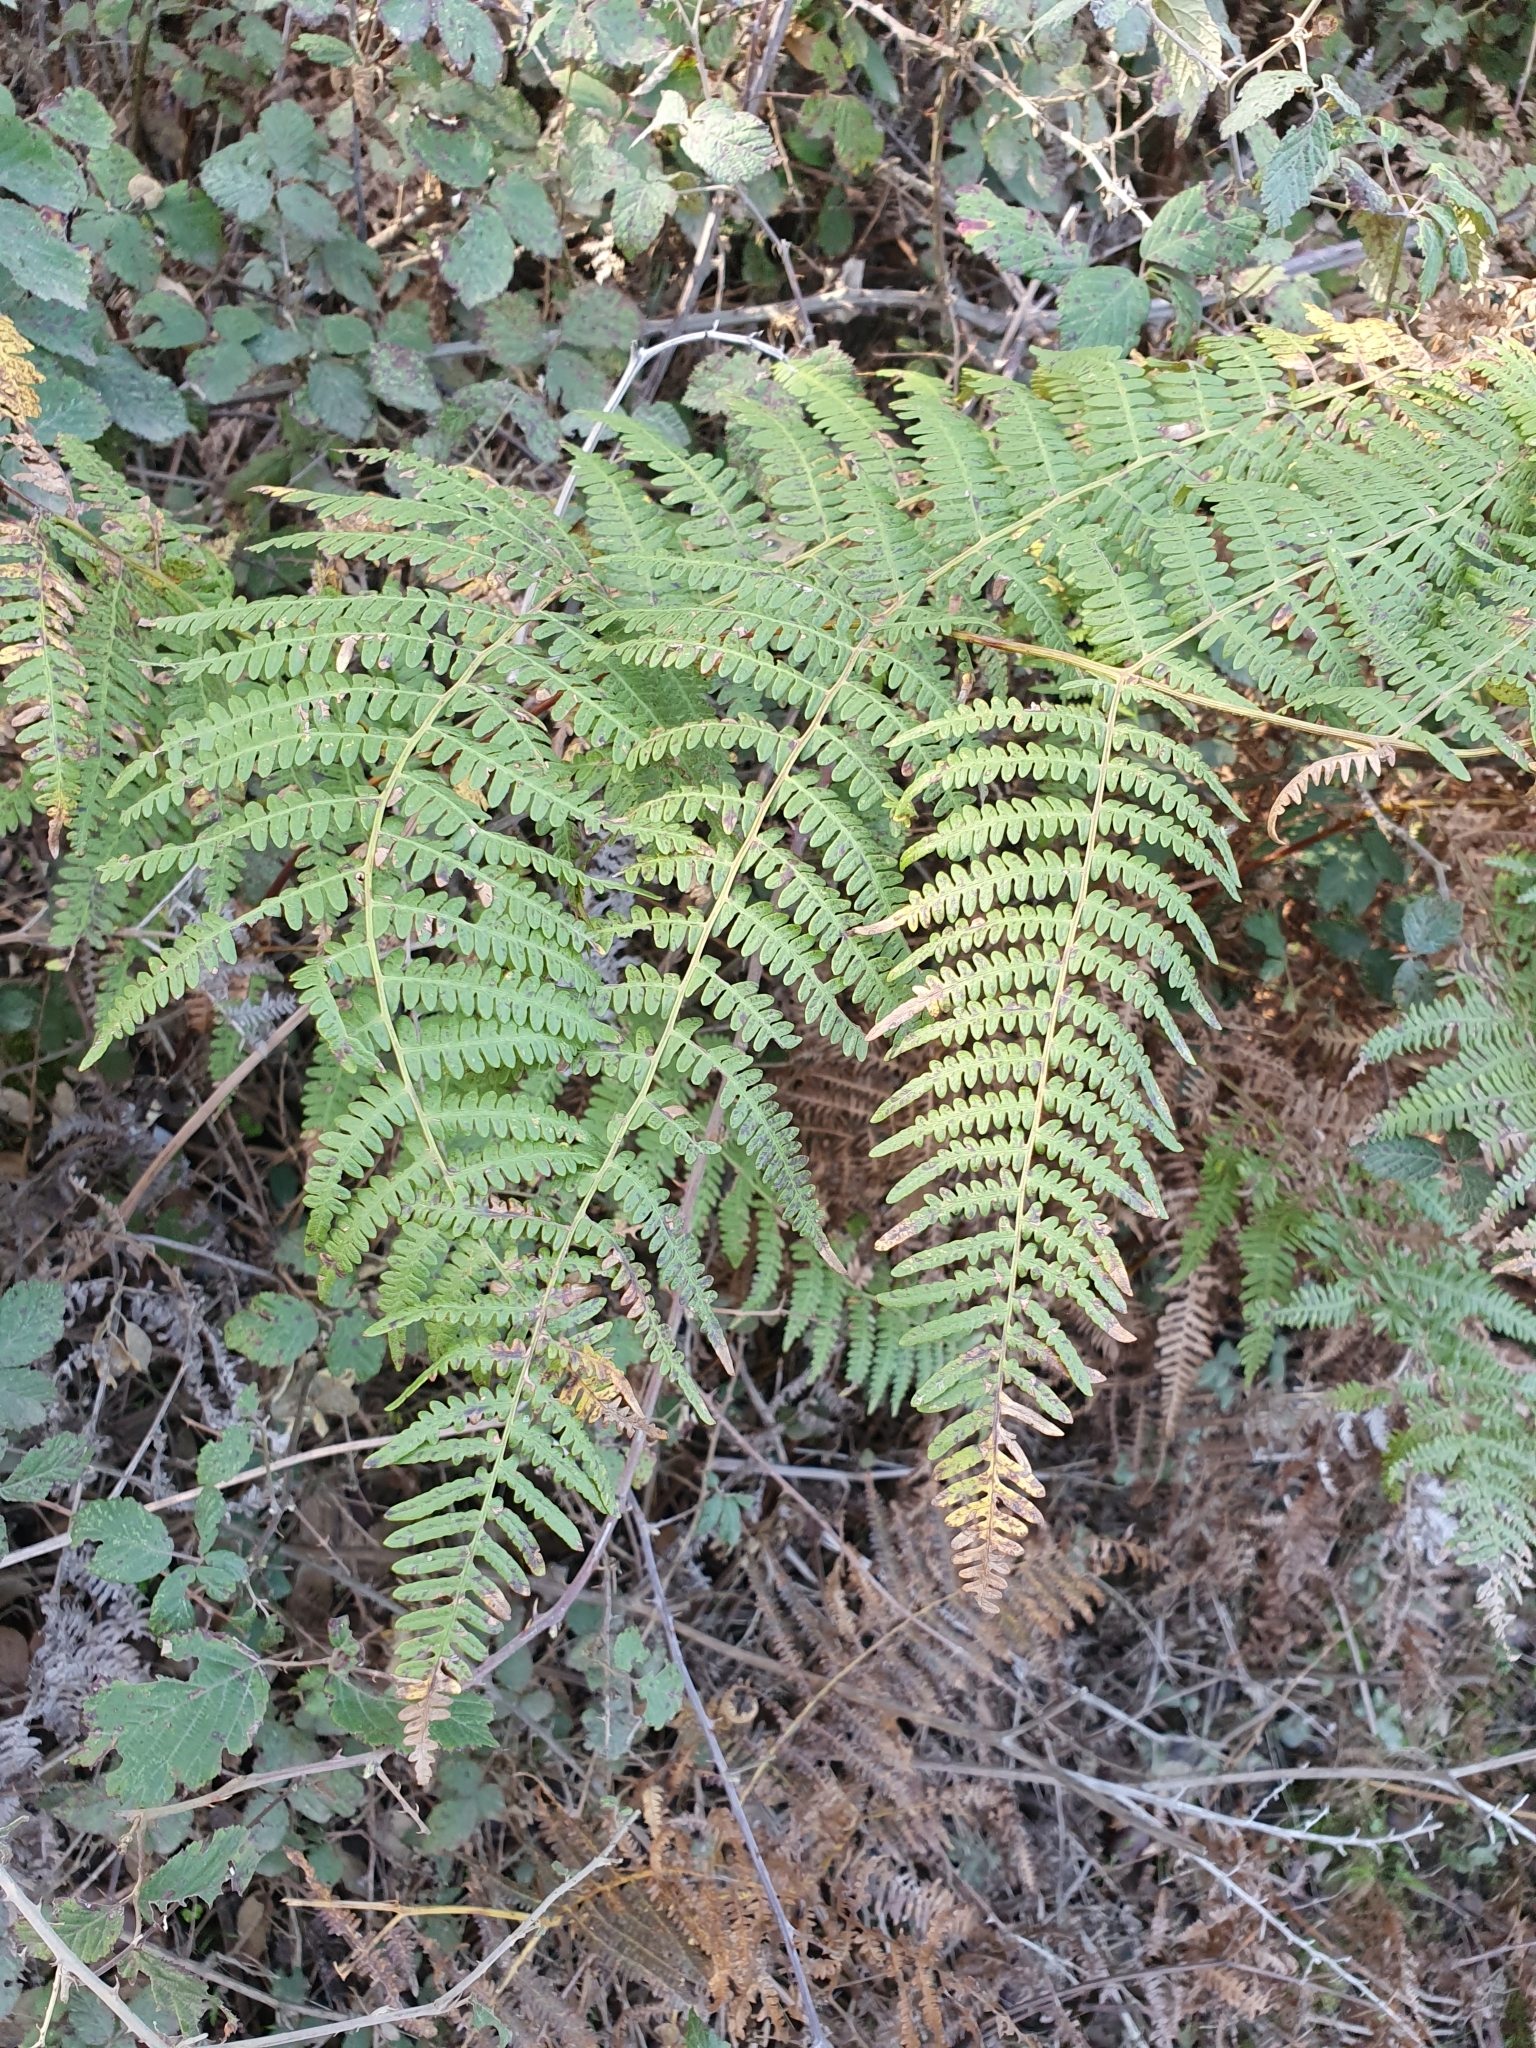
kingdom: Plantae
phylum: Tracheophyta
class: Polypodiopsida
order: Polypodiales
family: Dennstaedtiaceae
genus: Pteridium
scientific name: Pteridium aquilinum
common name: Bracken
